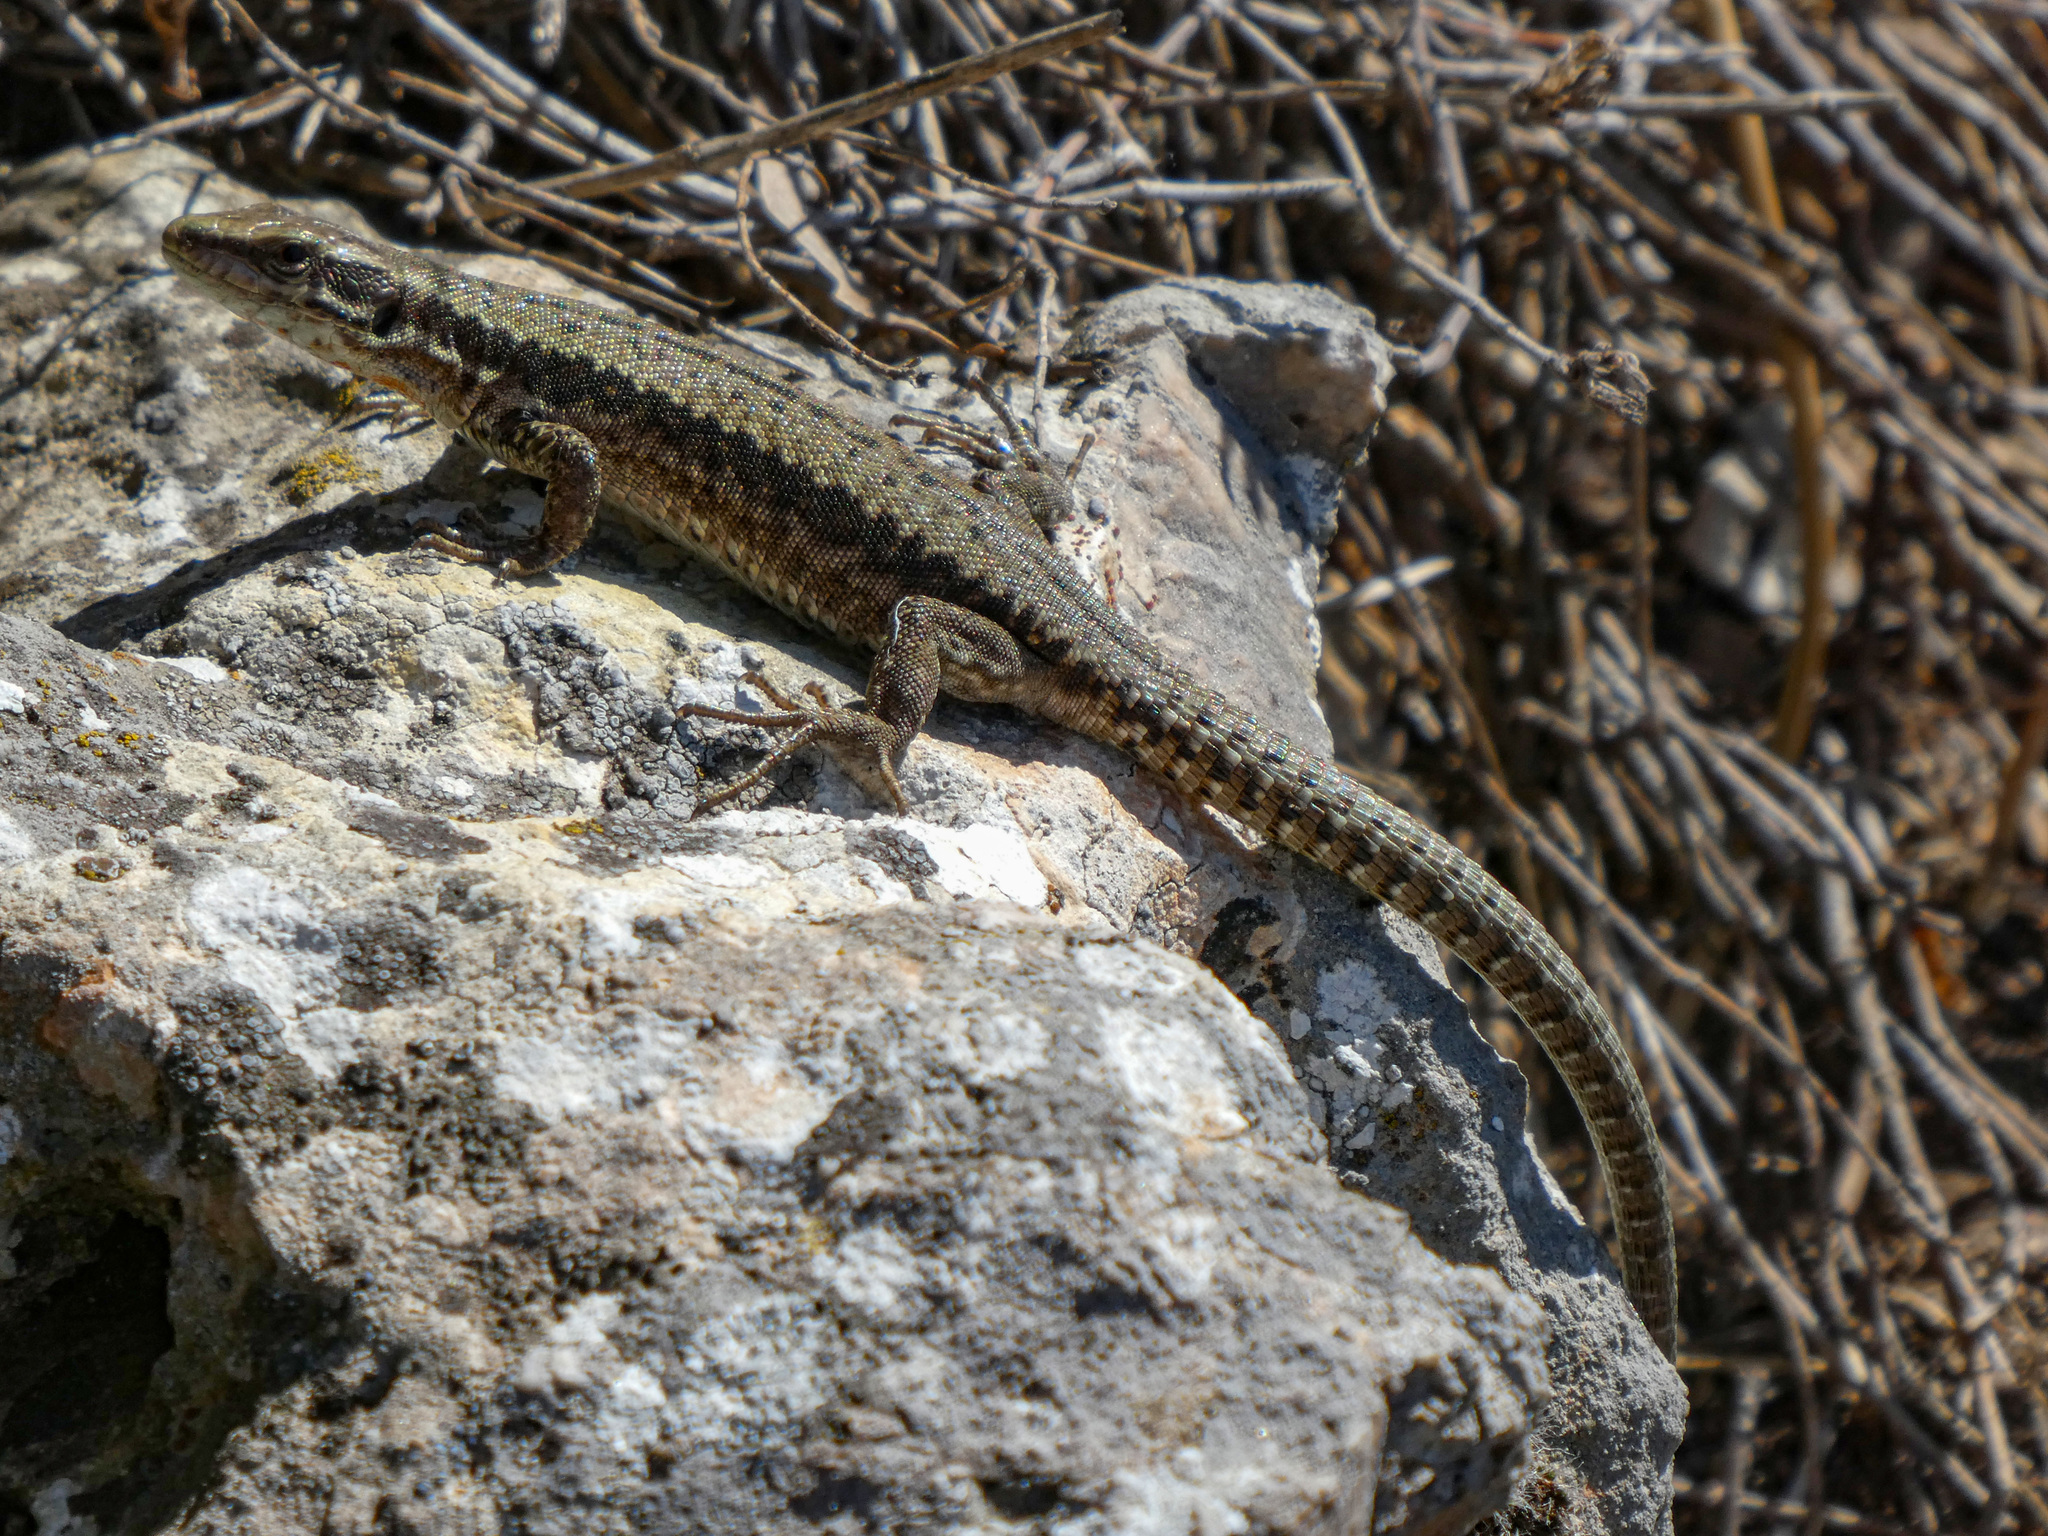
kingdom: Animalia
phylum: Chordata
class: Squamata
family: Lacertidae
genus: Podarcis
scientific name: Podarcis muralis
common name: Common wall lizard
